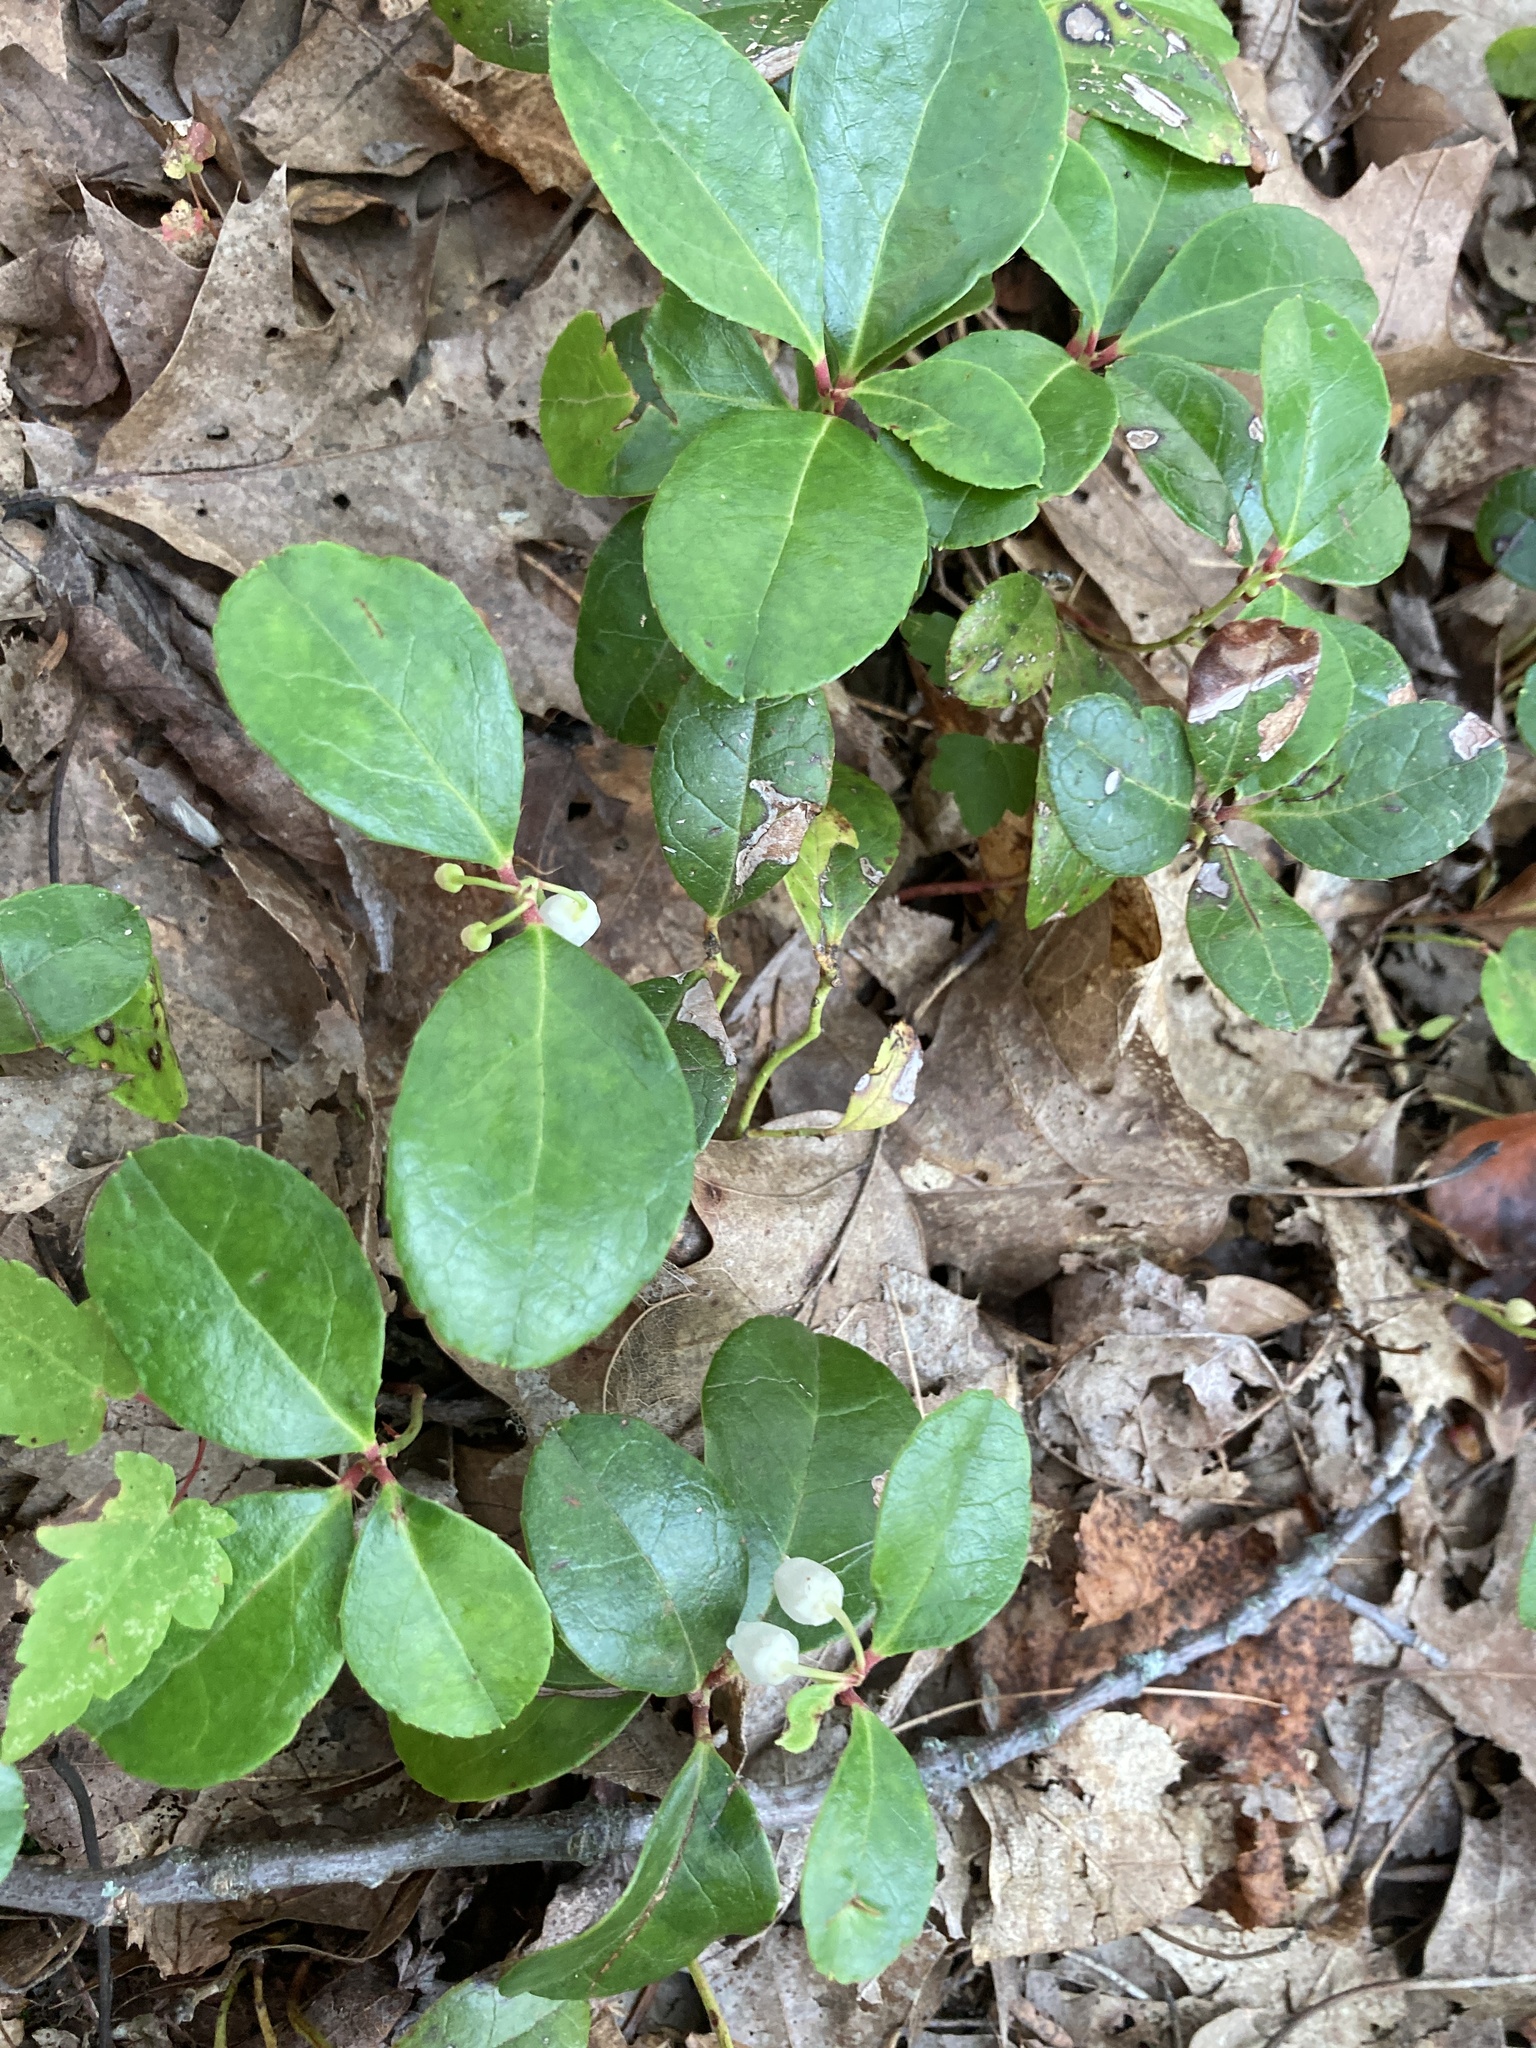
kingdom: Plantae
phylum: Tracheophyta
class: Magnoliopsida
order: Ericales
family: Ericaceae
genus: Gaultheria
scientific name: Gaultheria procumbens
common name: Checkerberry
